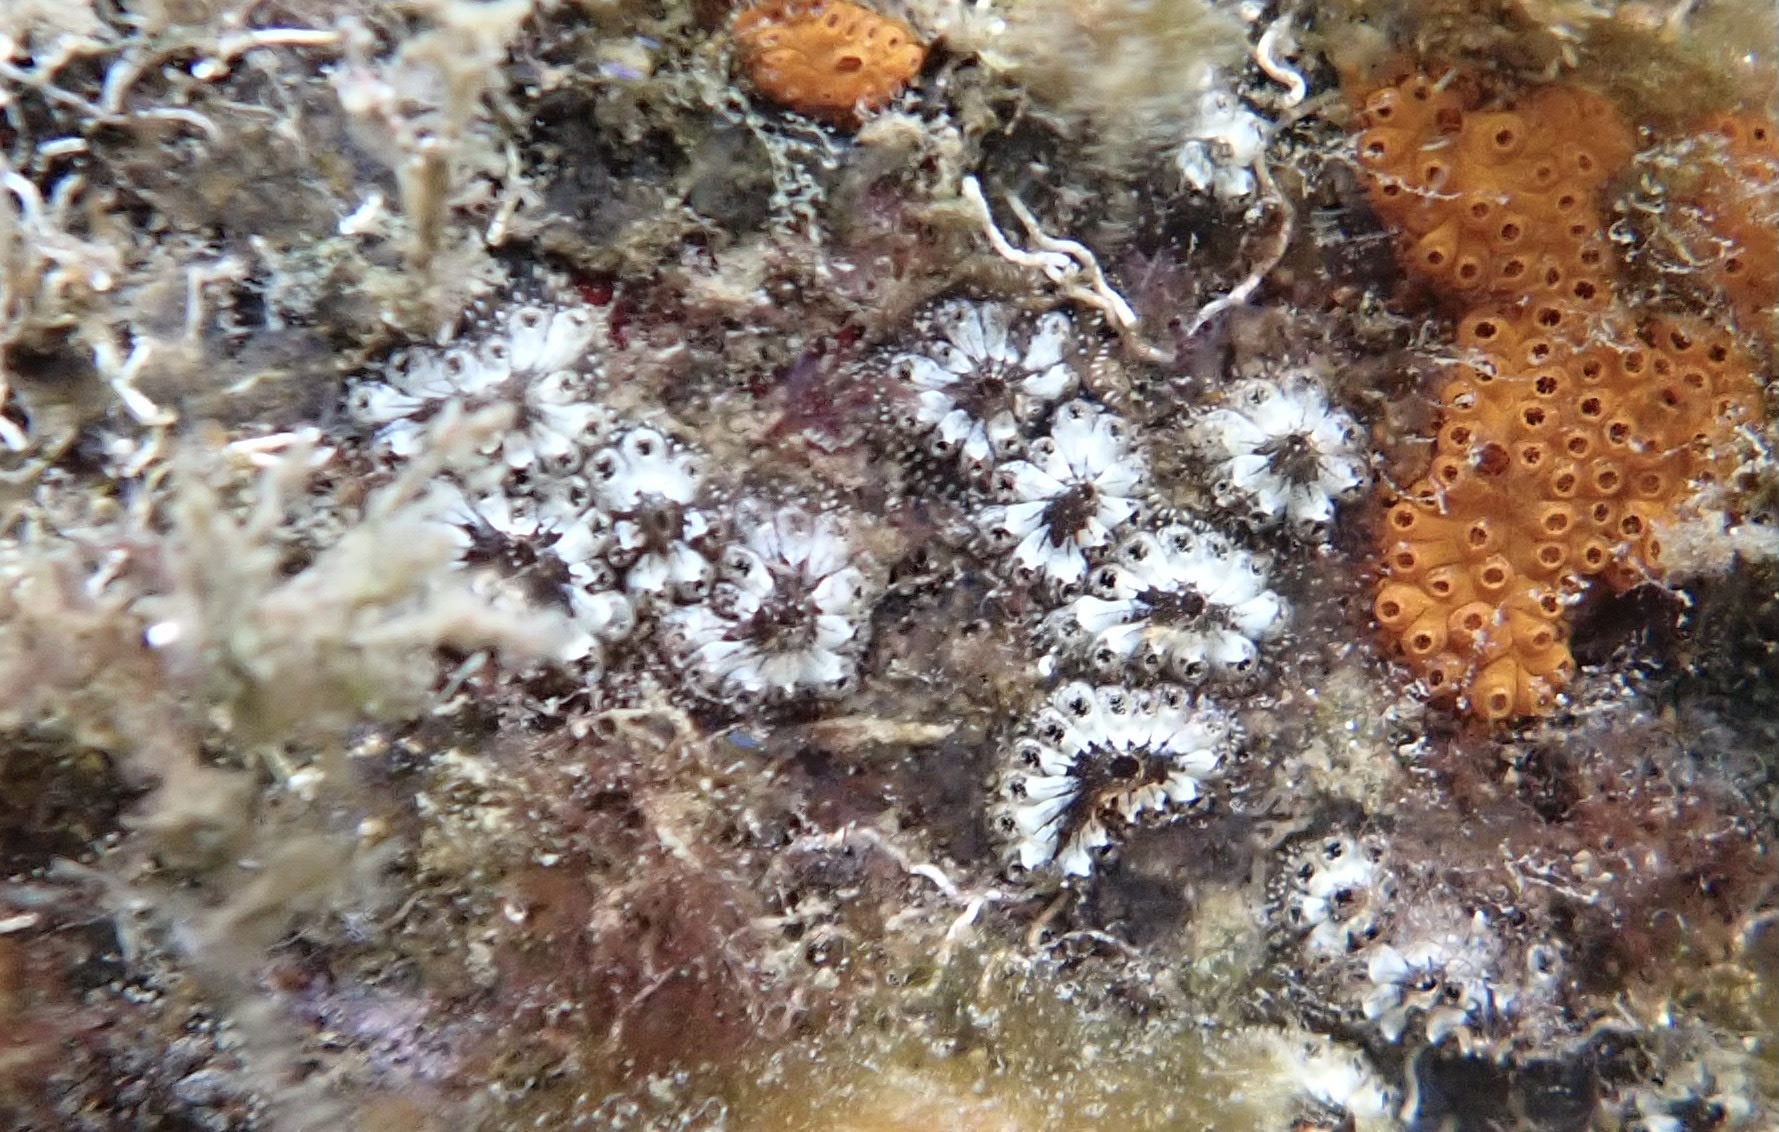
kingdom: Animalia
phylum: Chordata
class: Ascidiacea
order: Stolidobranchia
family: Styelidae
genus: Botryllus
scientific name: Botryllus schlosseri
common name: Golden star tunicate
